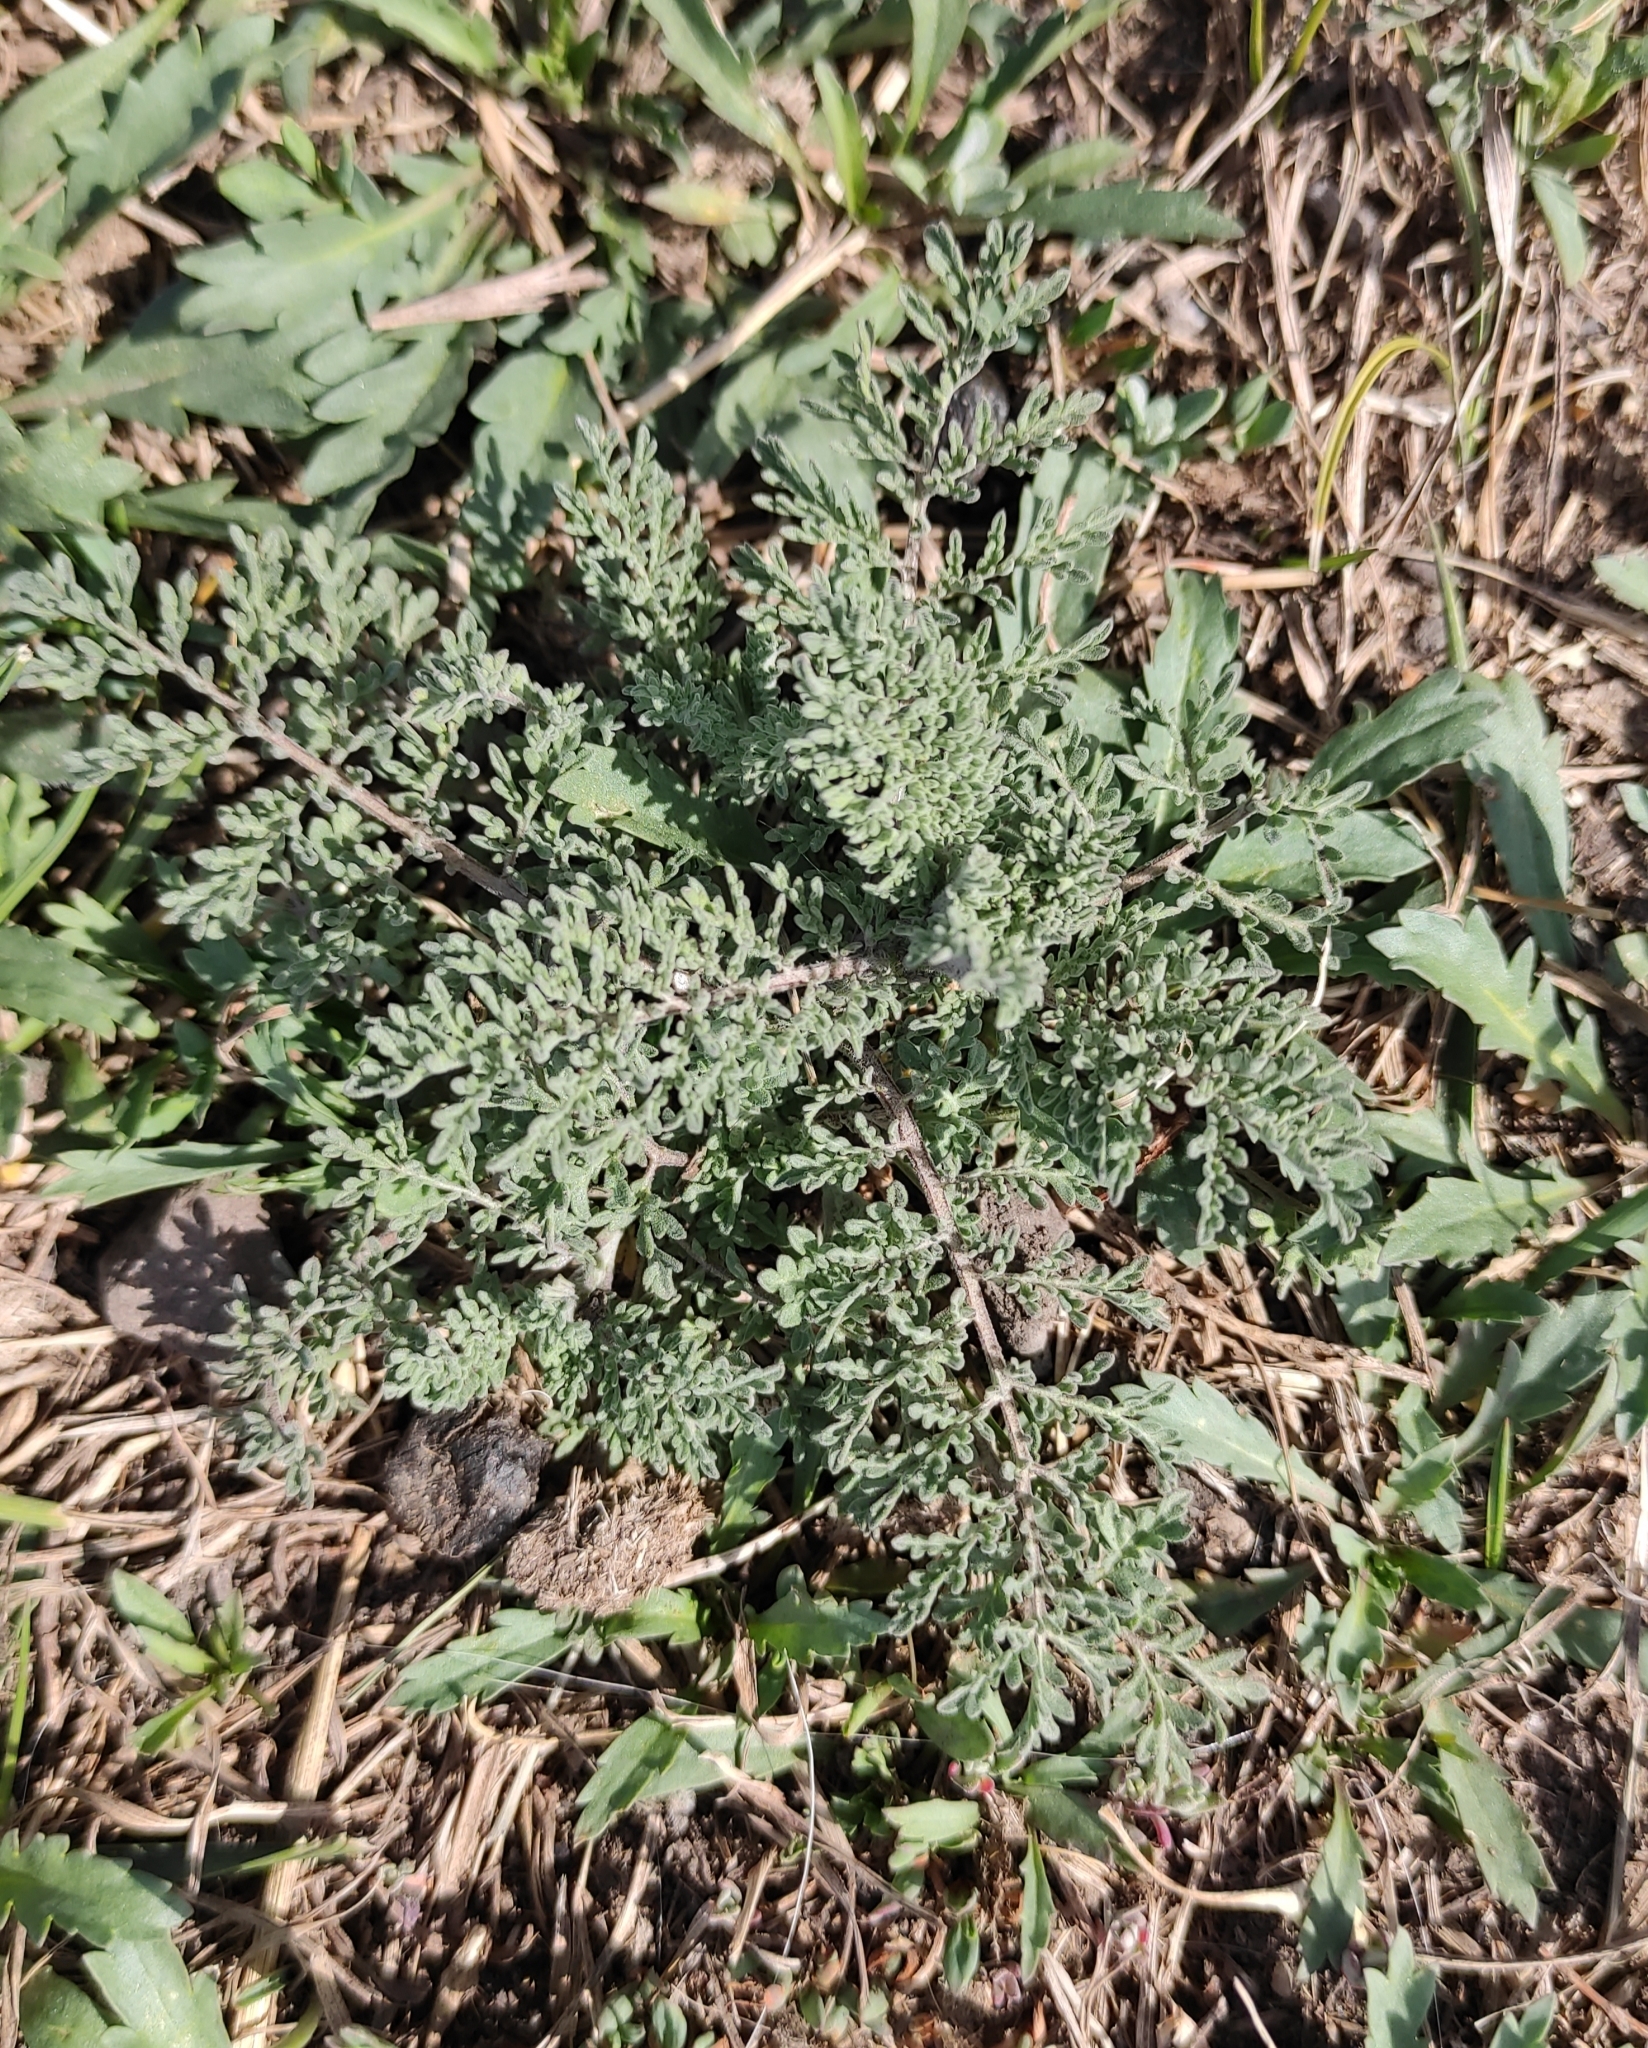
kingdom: Plantae
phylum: Tracheophyta
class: Magnoliopsida
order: Brassicales
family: Brassicaceae
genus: Descurainia
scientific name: Descurainia sophia
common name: Flixweed
